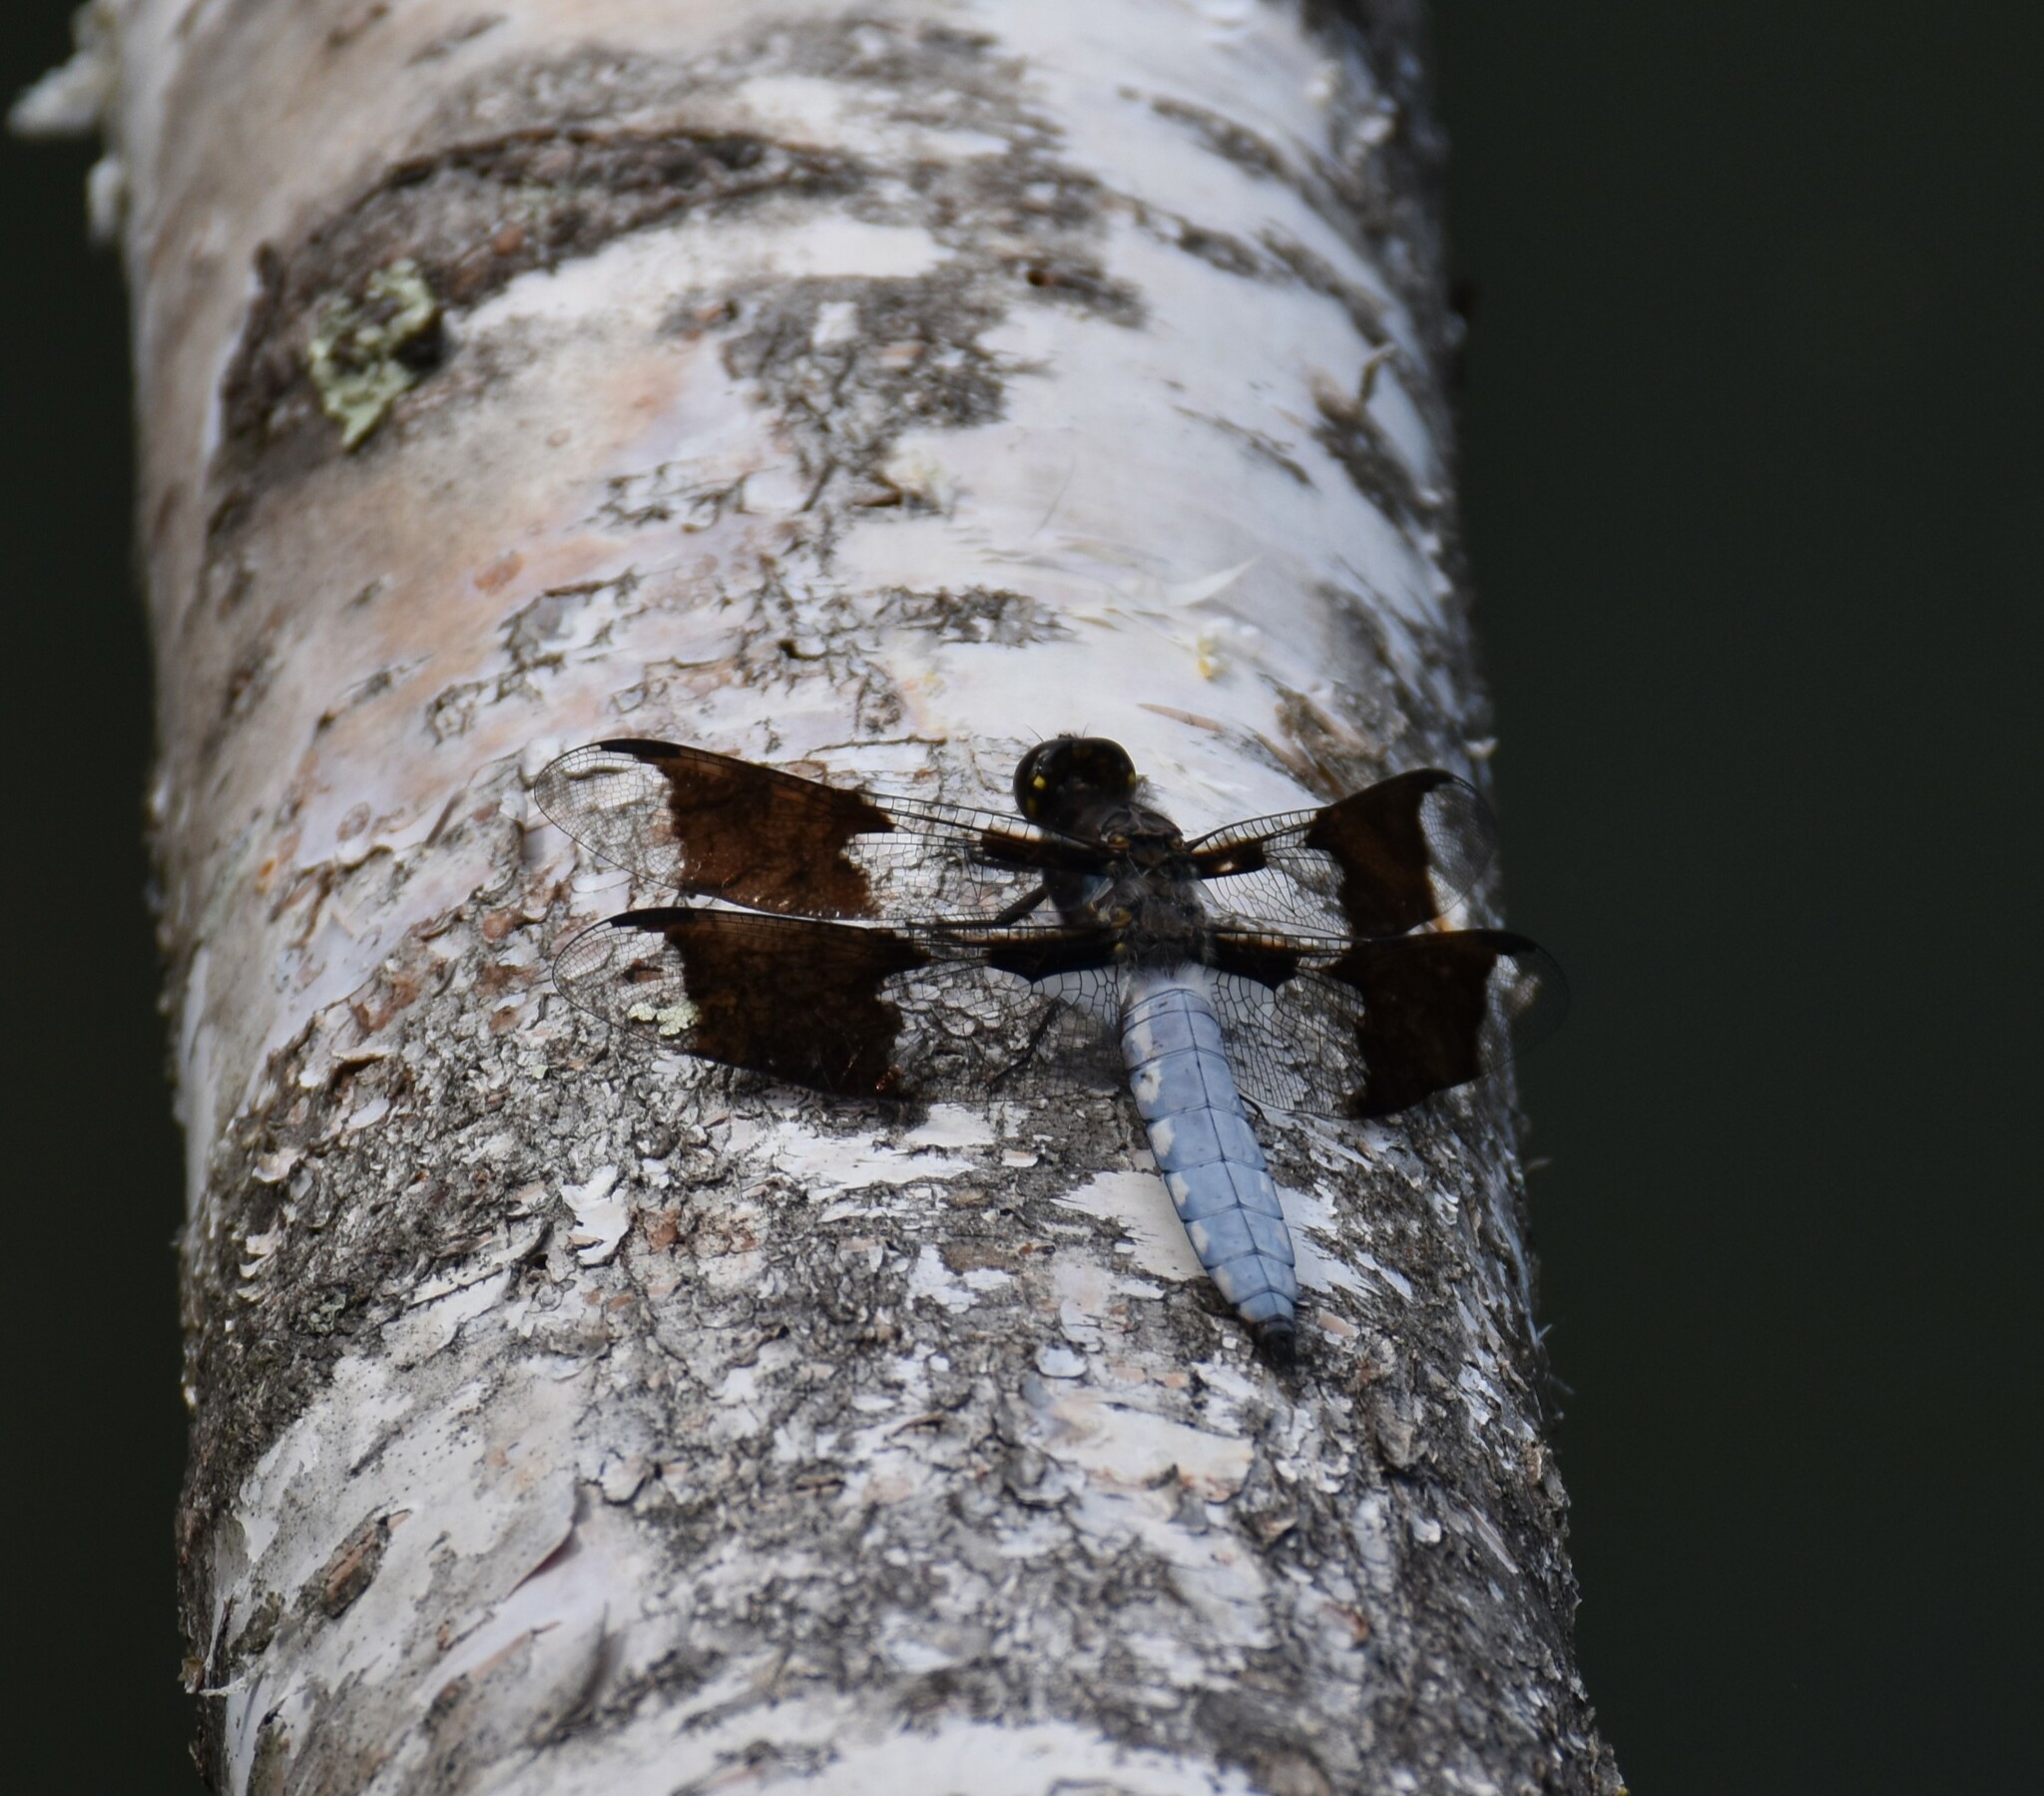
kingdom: Animalia
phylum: Arthropoda
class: Insecta
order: Odonata
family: Libellulidae
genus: Plathemis
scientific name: Plathemis lydia
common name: Common whitetail
